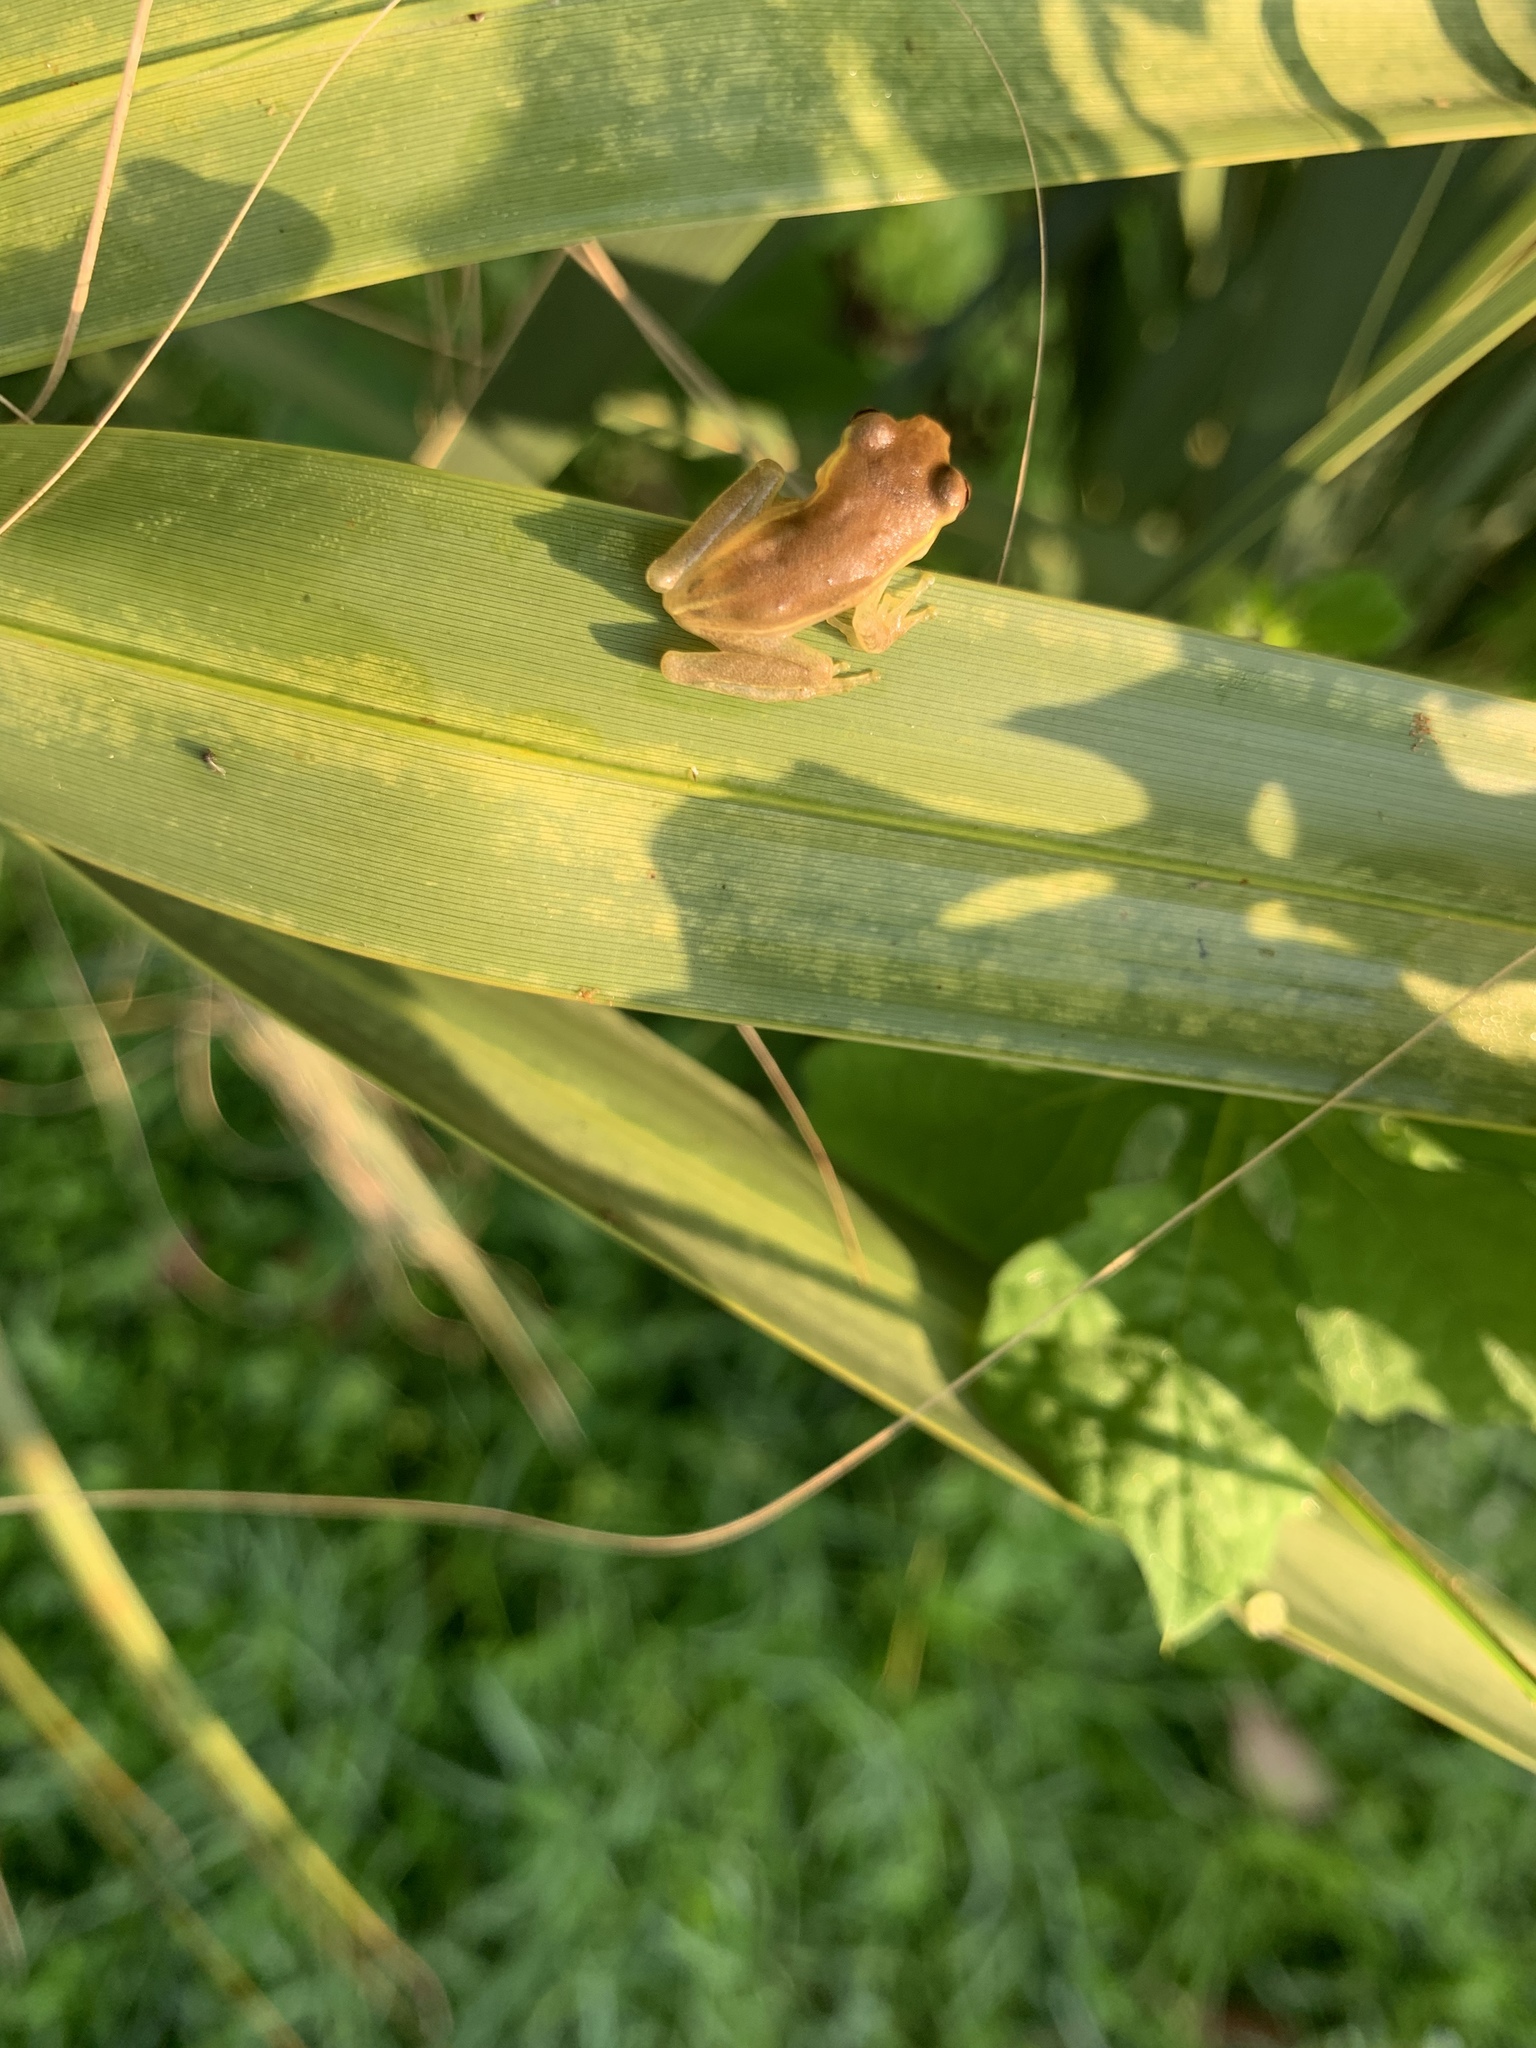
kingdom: Animalia
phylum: Chordata
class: Amphibia
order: Anura
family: Hylidae
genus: Osteopilus
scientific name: Osteopilus septentrionalis
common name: Cuban treefrog
